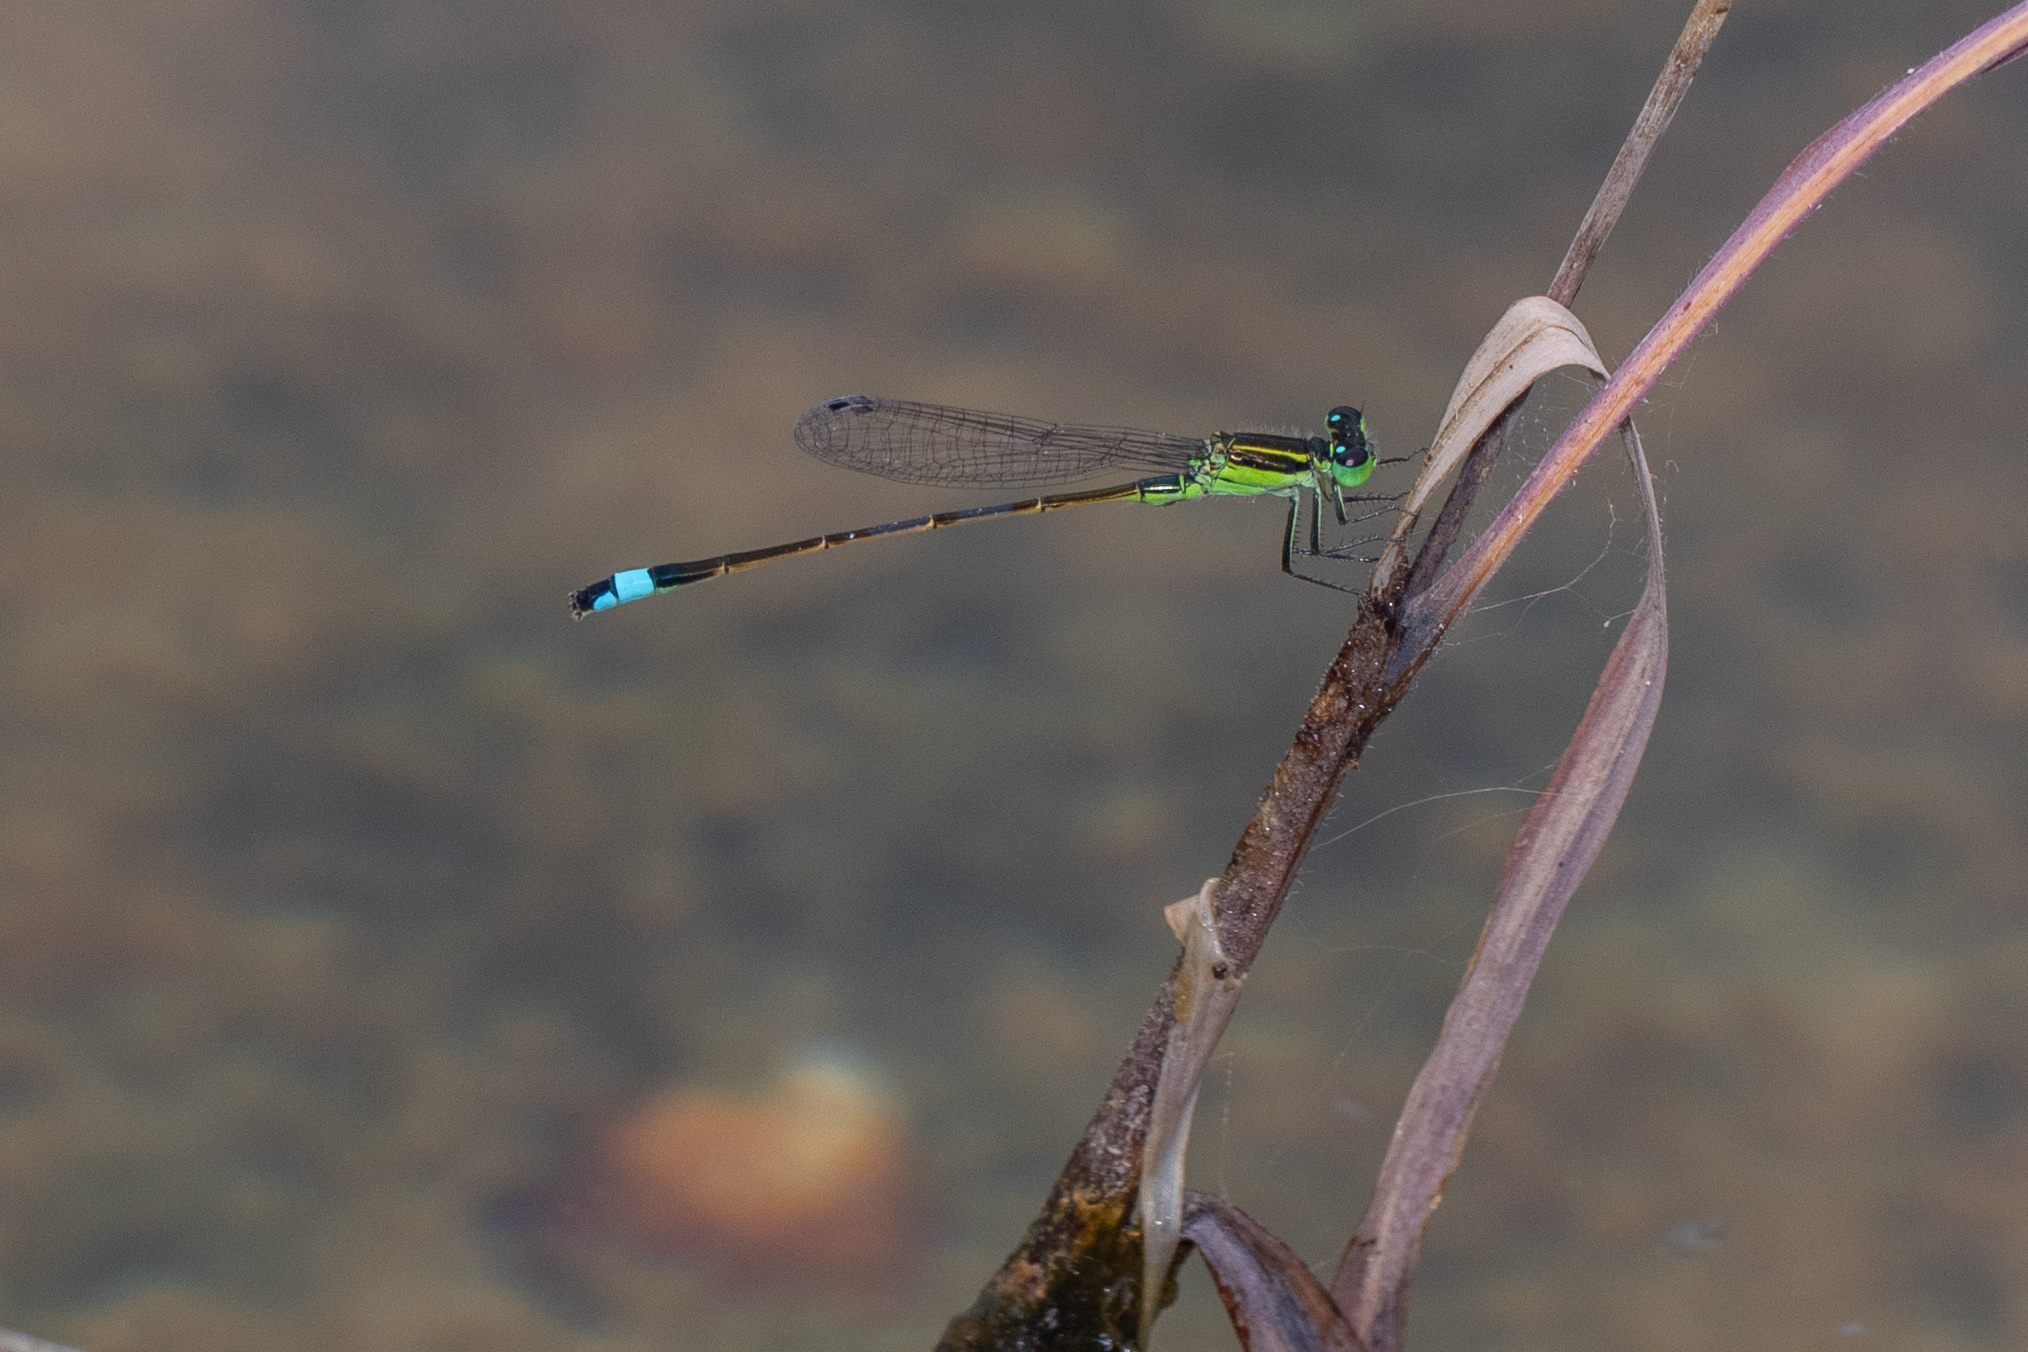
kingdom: Animalia
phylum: Arthropoda
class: Insecta
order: Odonata
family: Coenagrionidae
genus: Ischnura
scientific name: Ischnura ramburii
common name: Rambur's forktail
